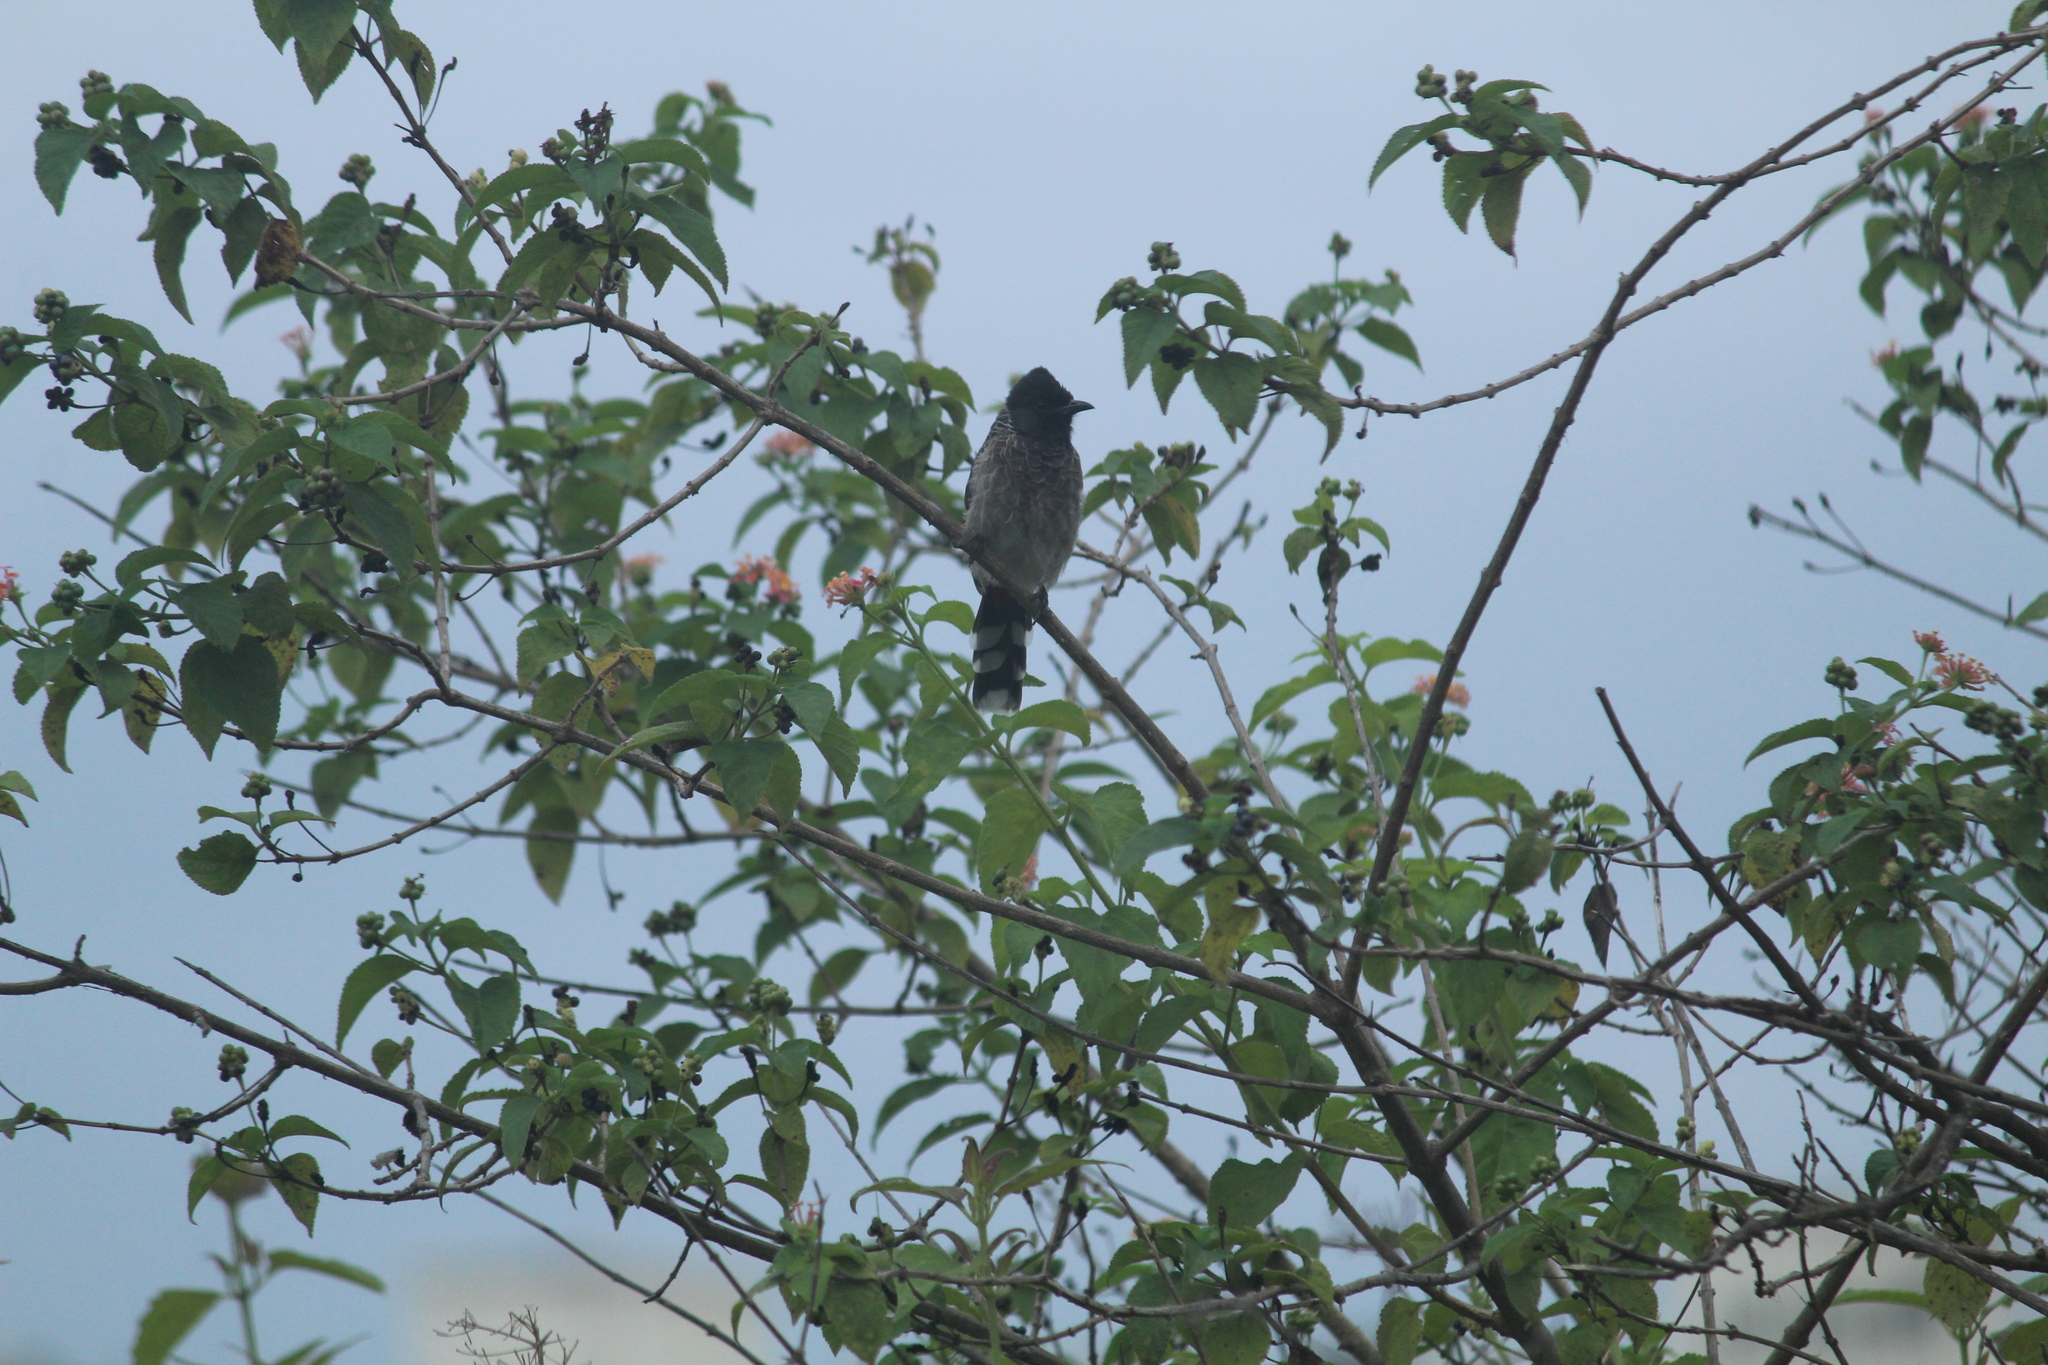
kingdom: Animalia
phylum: Chordata
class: Aves
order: Passeriformes
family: Pycnonotidae
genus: Pycnonotus
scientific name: Pycnonotus cafer
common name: Red-vented bulbul
